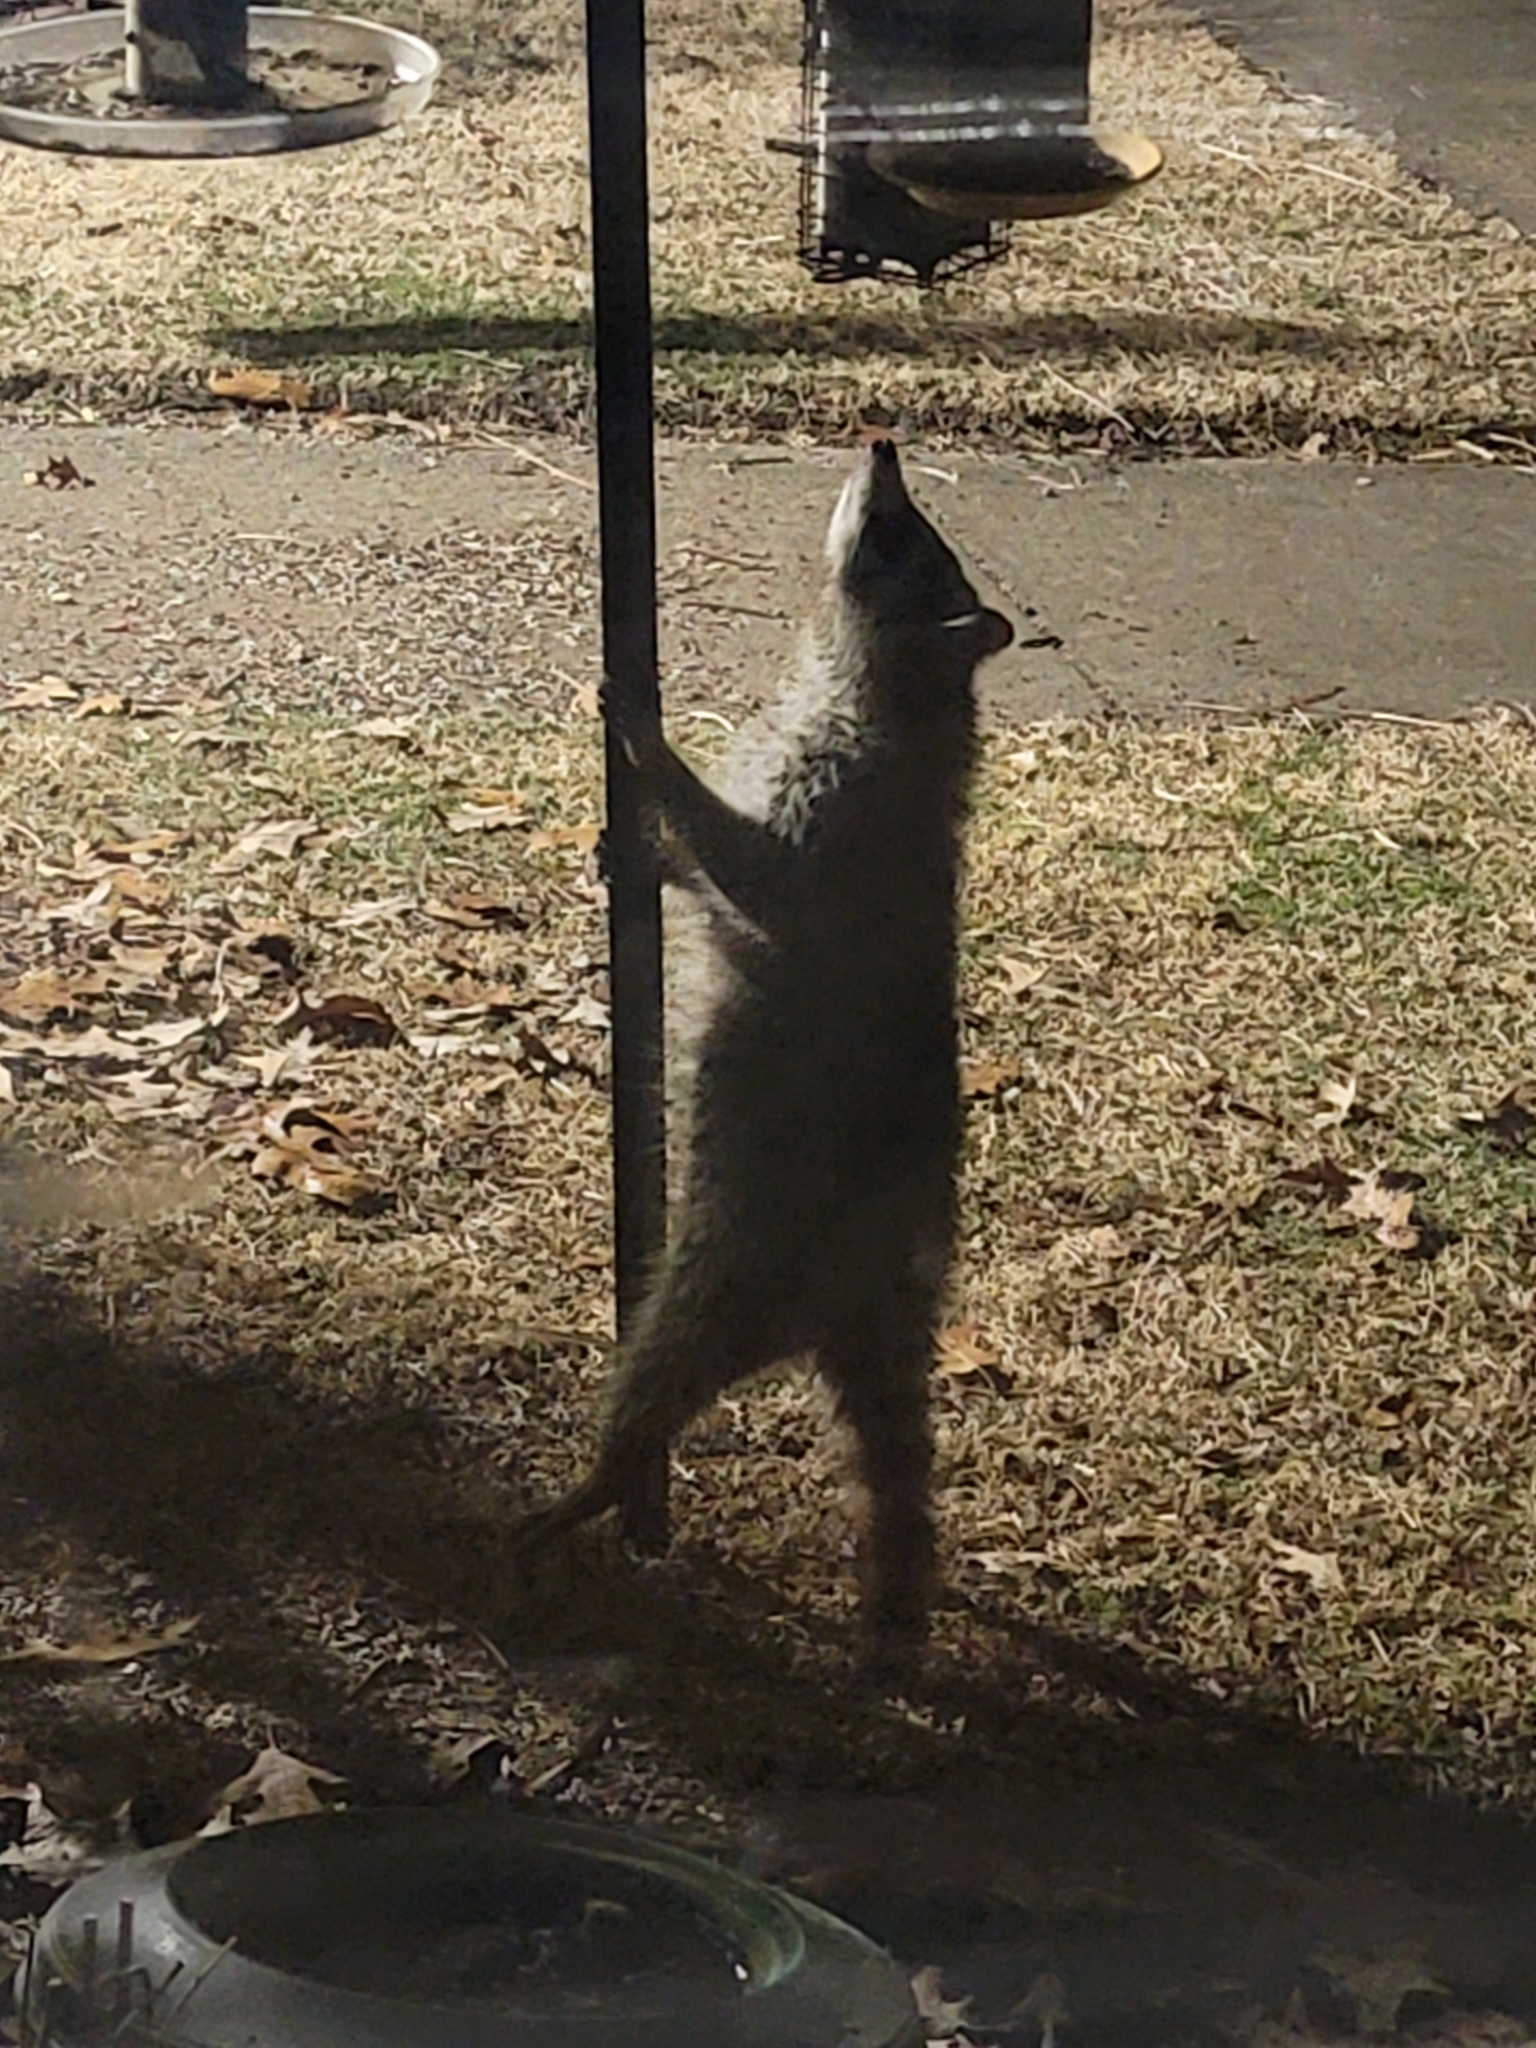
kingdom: Animalia
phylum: Chordata
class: Mammalia
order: Carnivora
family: Procyonidae
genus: Procyon
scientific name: Procyon lotor
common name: Raccoon
